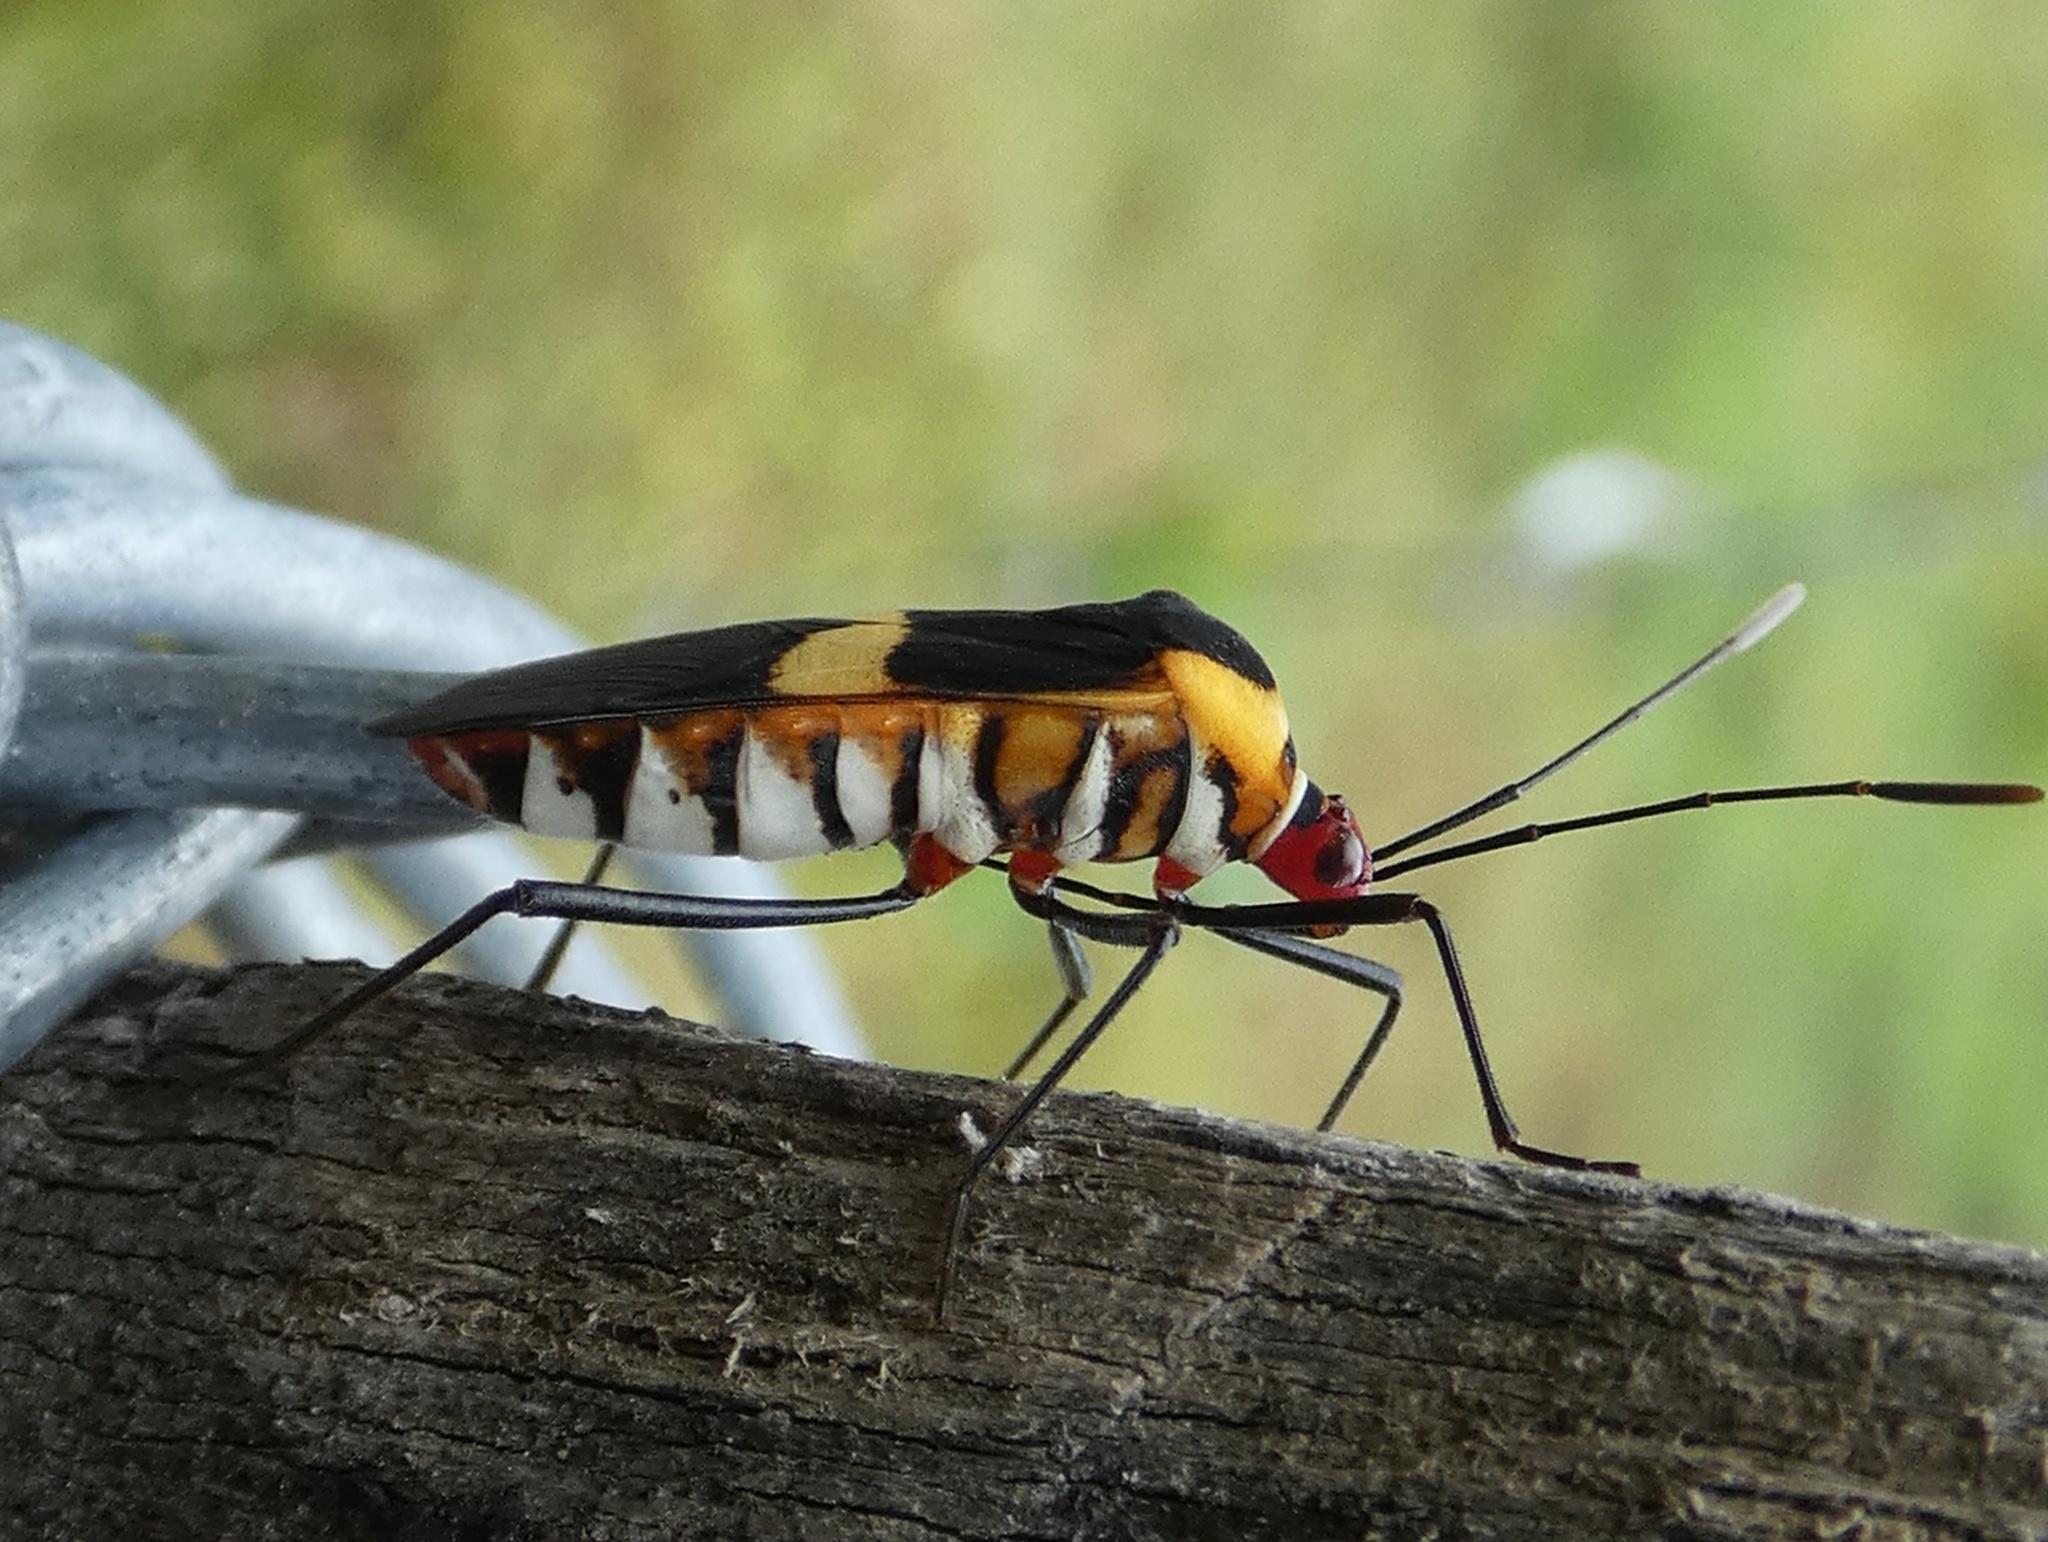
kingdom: Animalia
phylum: Arthropoda
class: Insecta
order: Hemiptera
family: Coreidae
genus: Hypselonotus
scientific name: Hypselonotus interruptus
